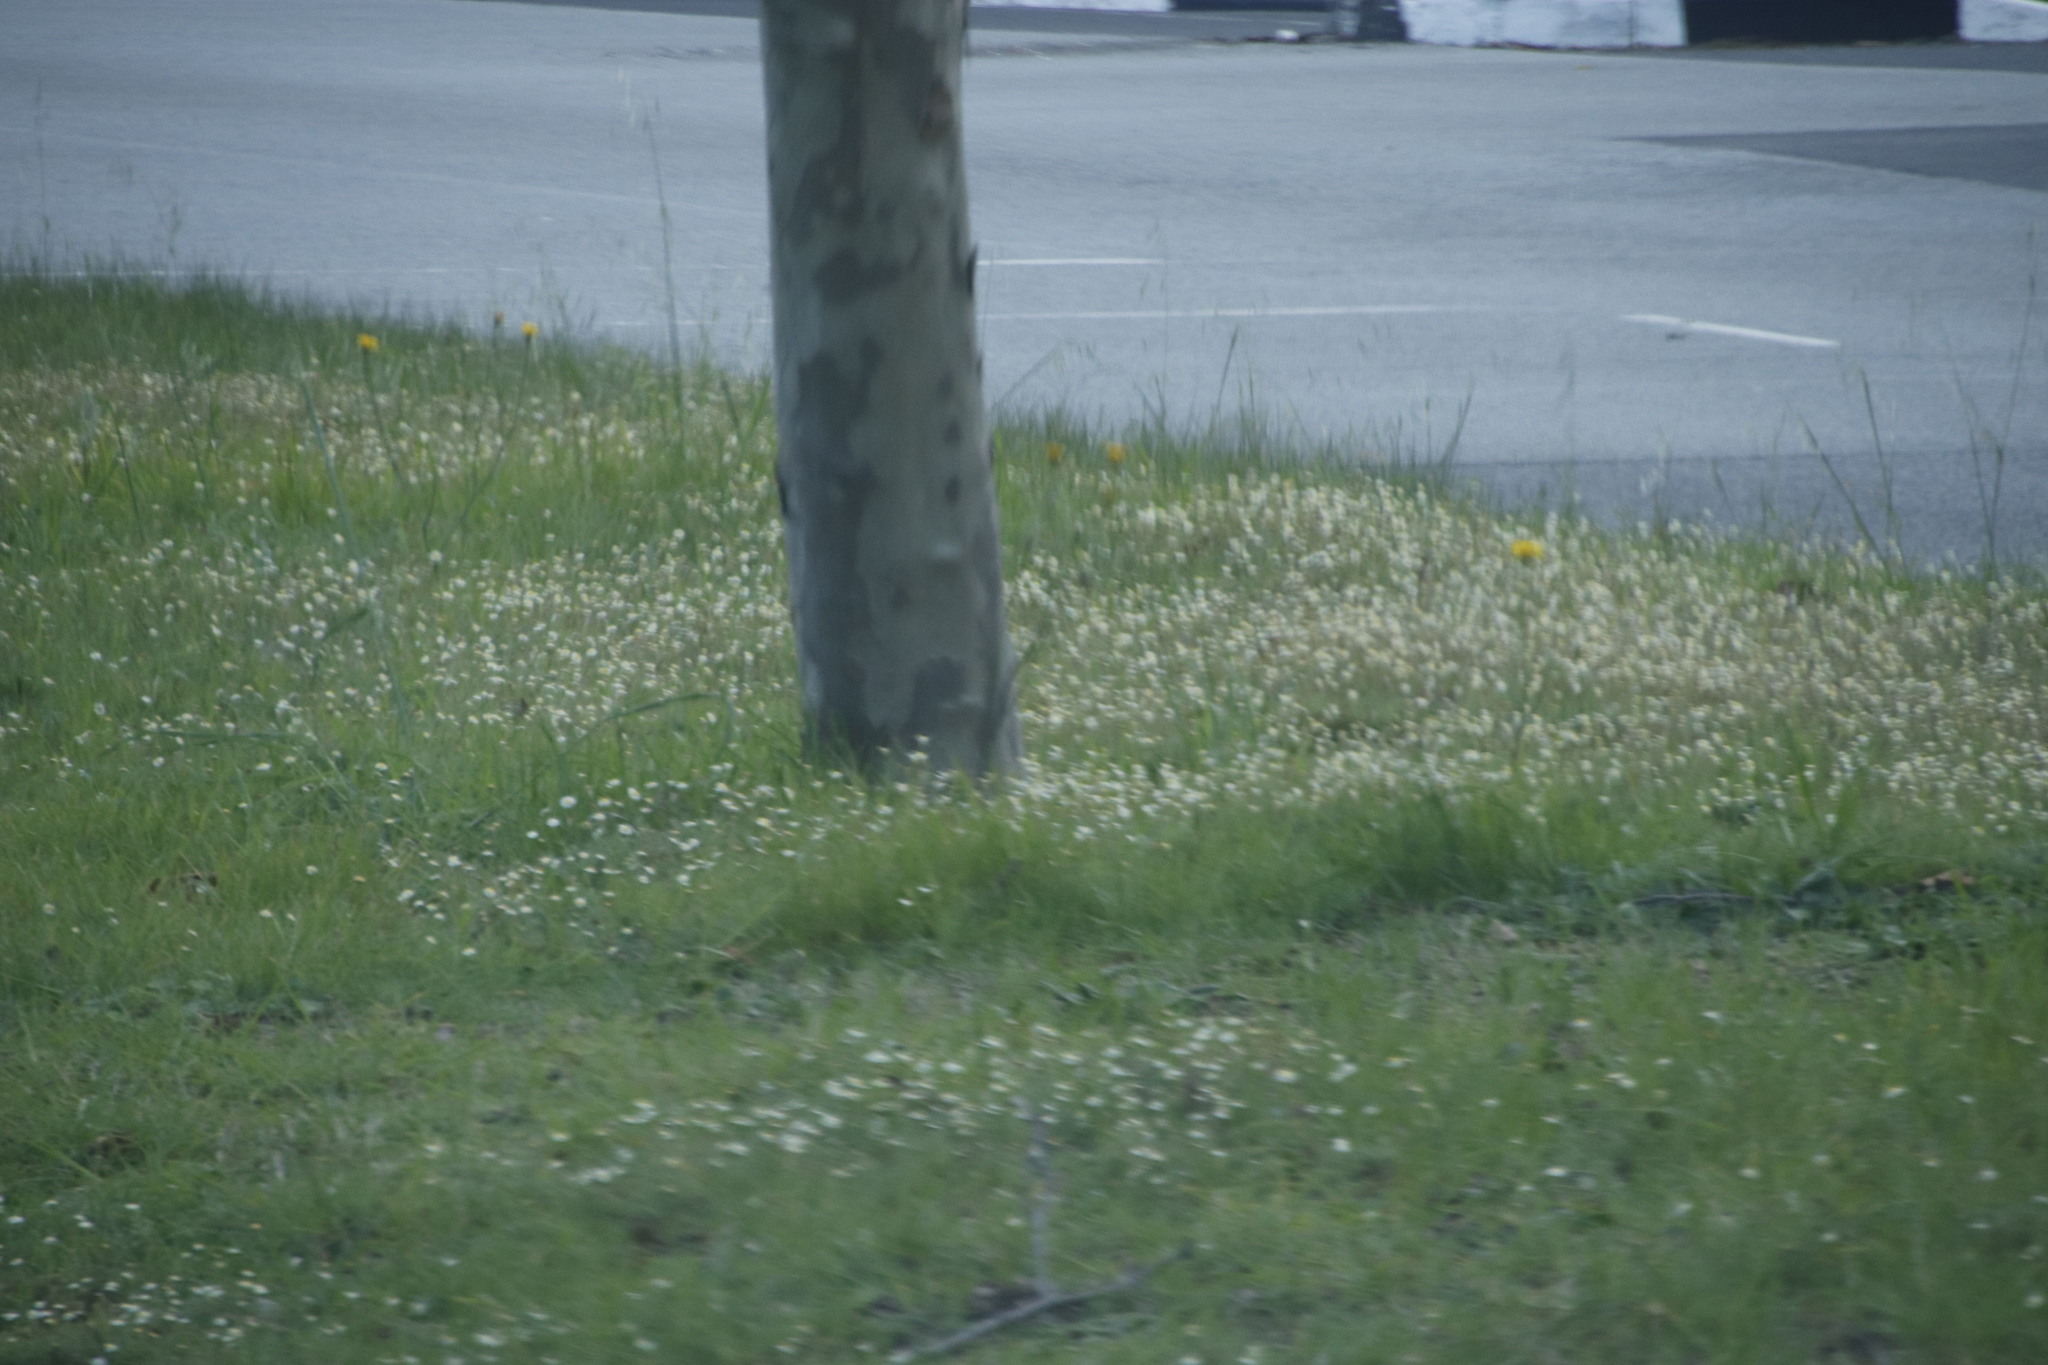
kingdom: Plantae
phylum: Tracheophyta
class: Magnoliopsida
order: Asterales
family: Asteraceae
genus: Cotula
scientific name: Cotula turbinata
